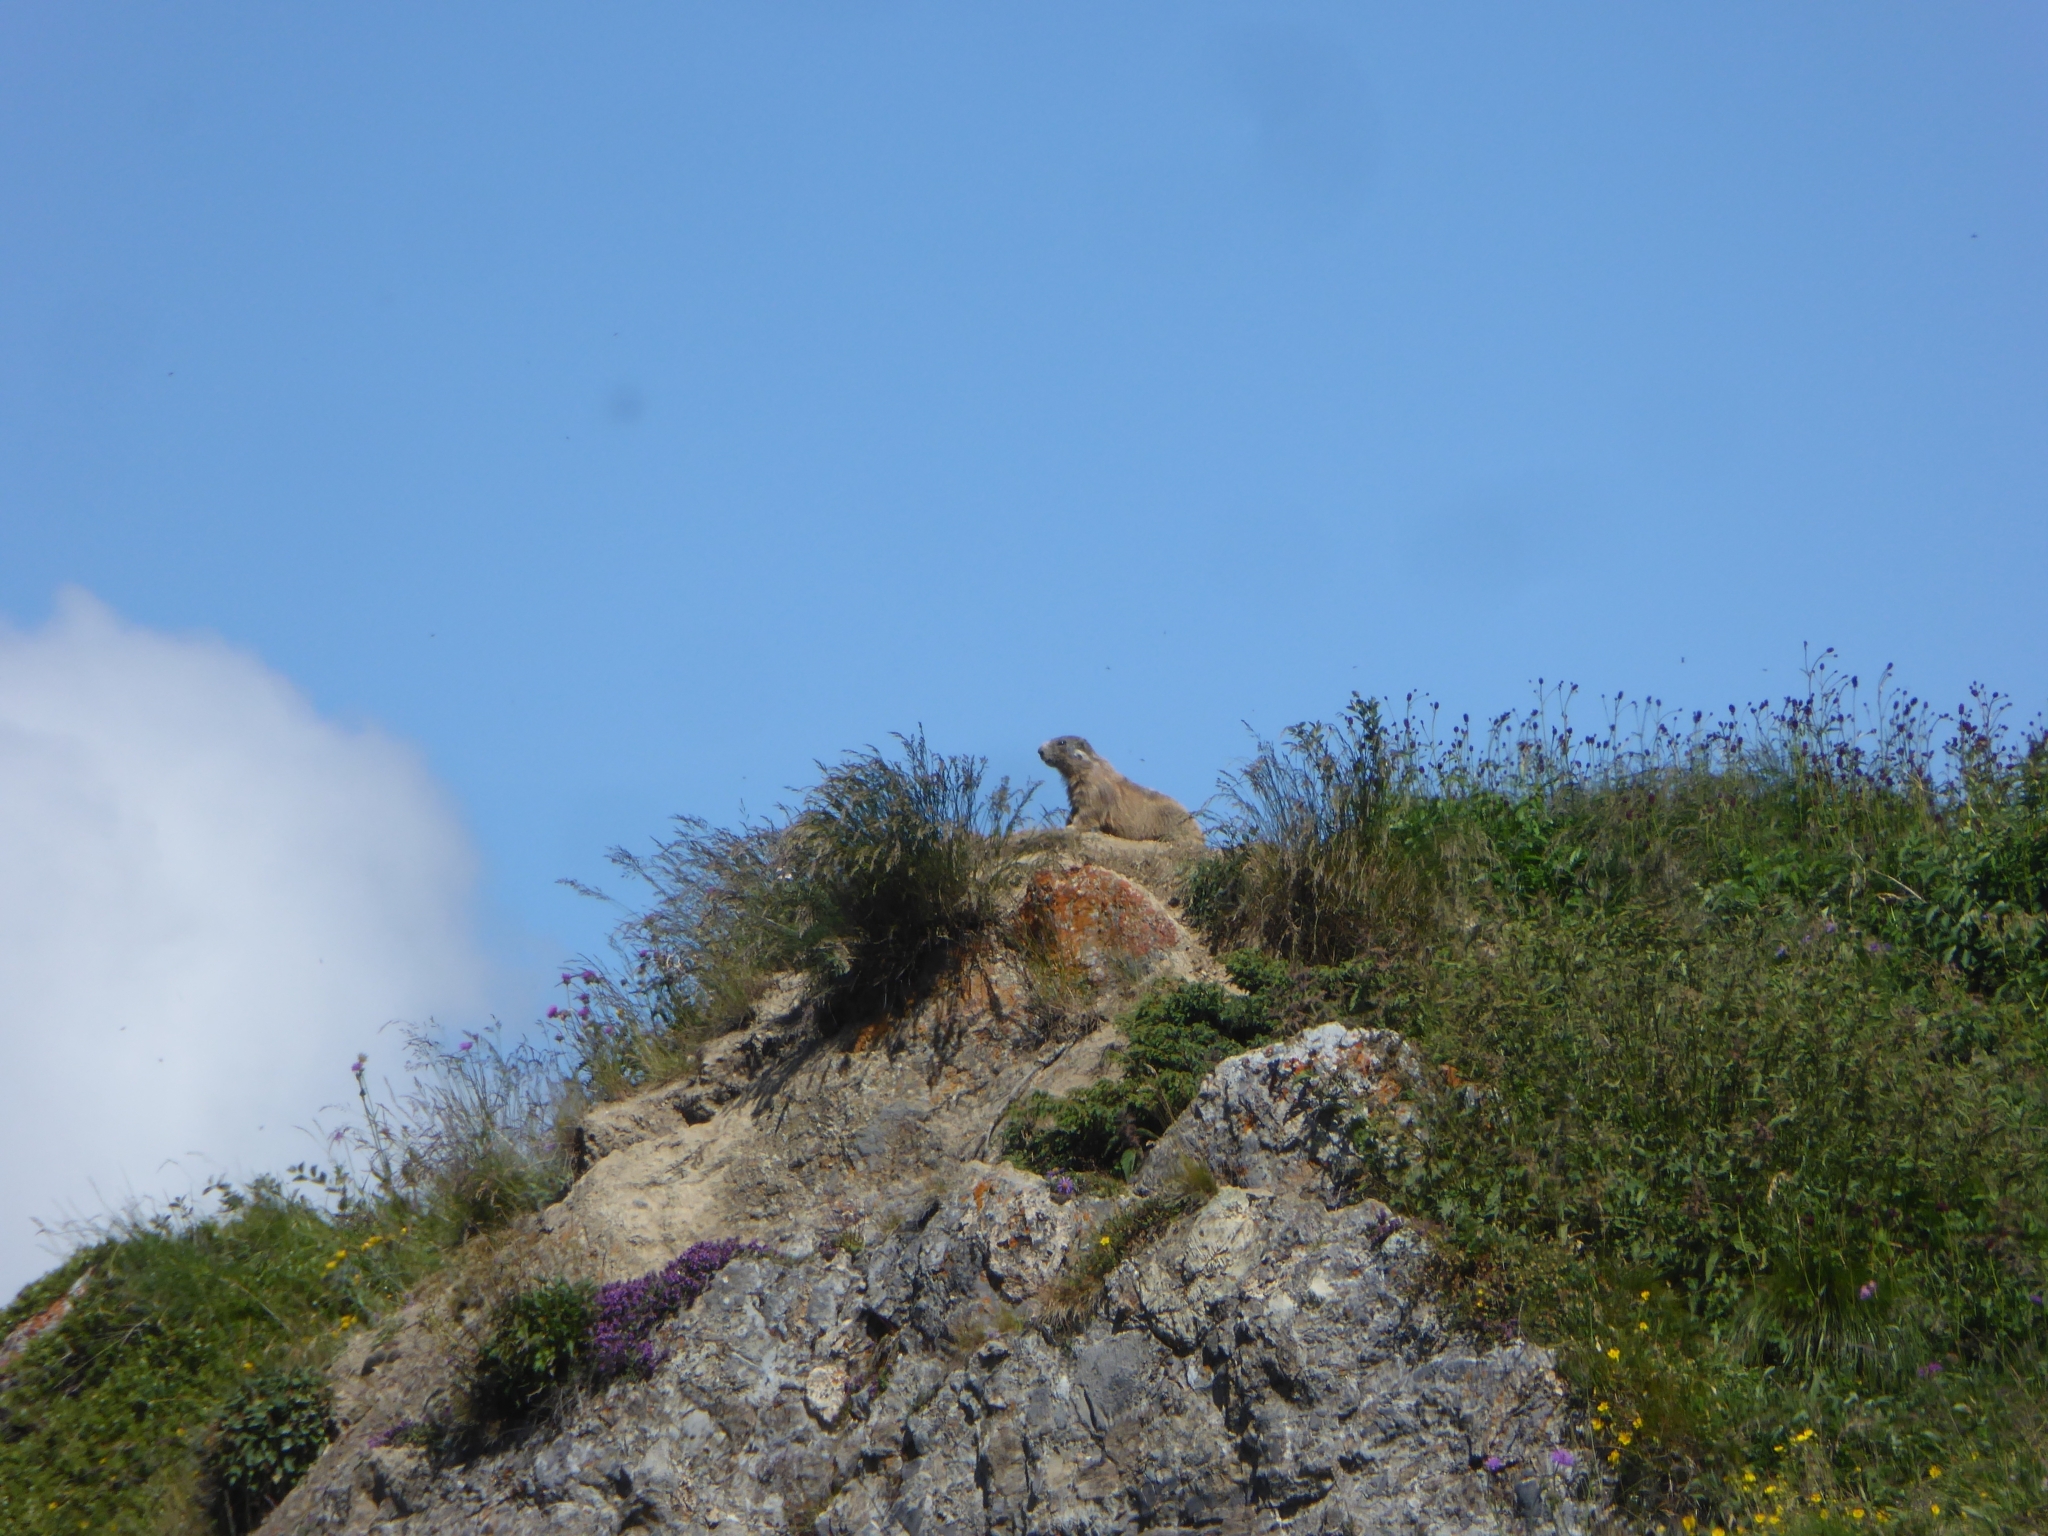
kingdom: Animalia
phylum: Chordata
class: Mammalia
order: Rodentia
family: Sciuridae
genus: Marmota
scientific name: Marmota marmota
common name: Alpine marmot
